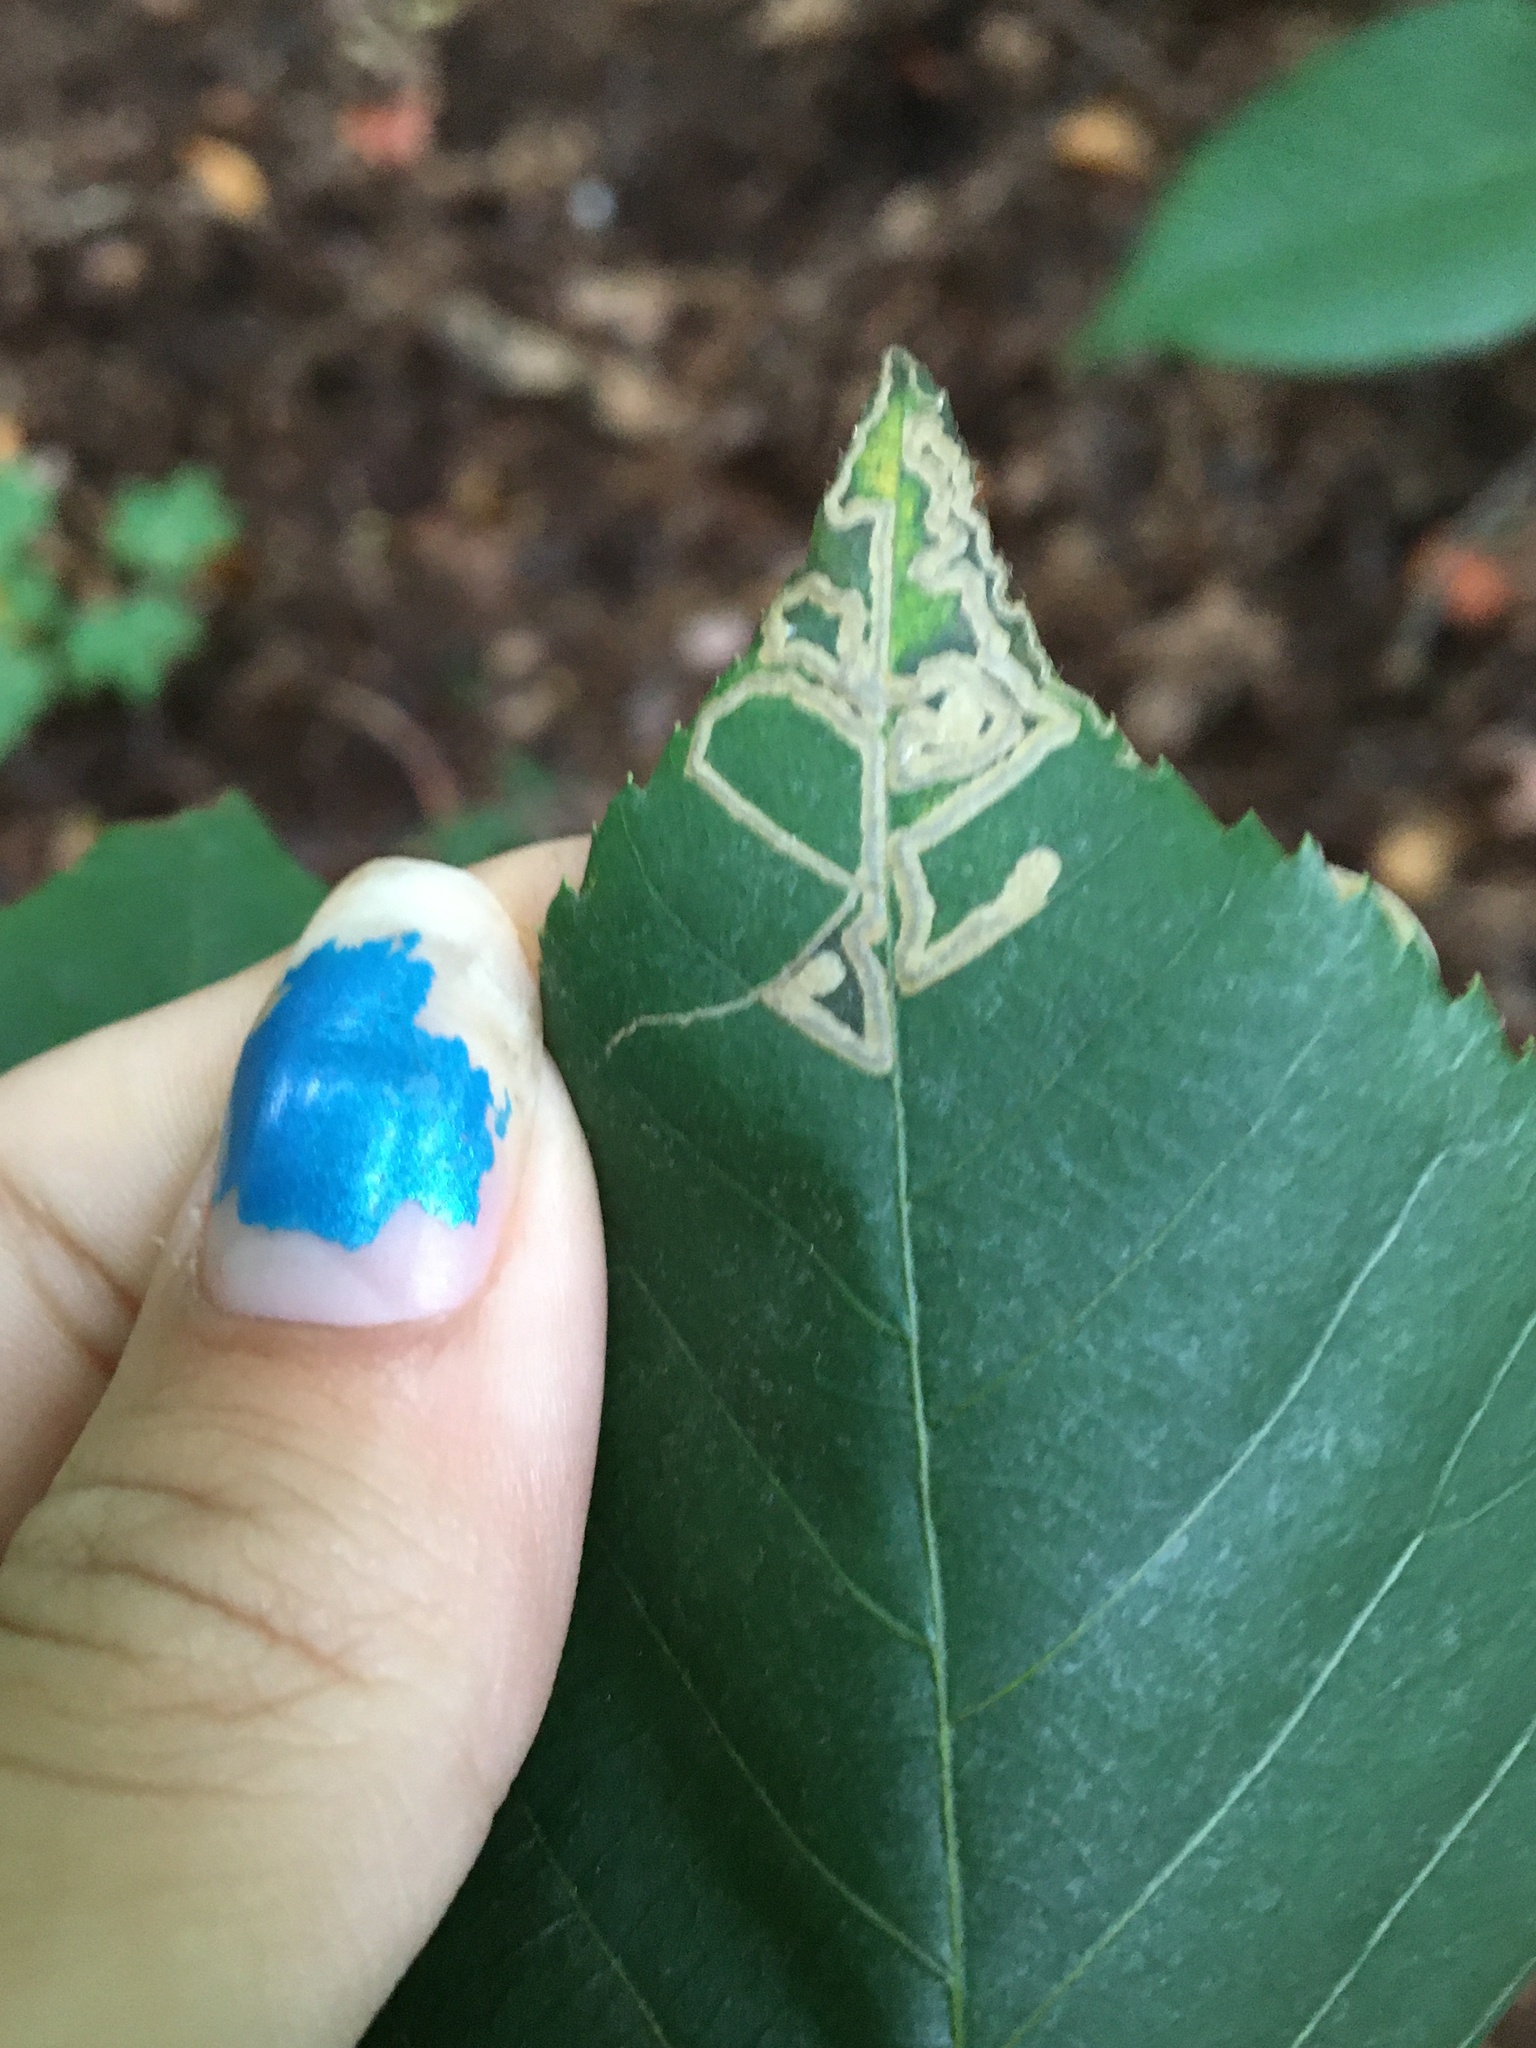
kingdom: Animalia
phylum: Arthropoda
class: Insecta
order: Lepidoptera
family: Nepticulidae
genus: Stigmella
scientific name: Stigmella caryaefoliella
